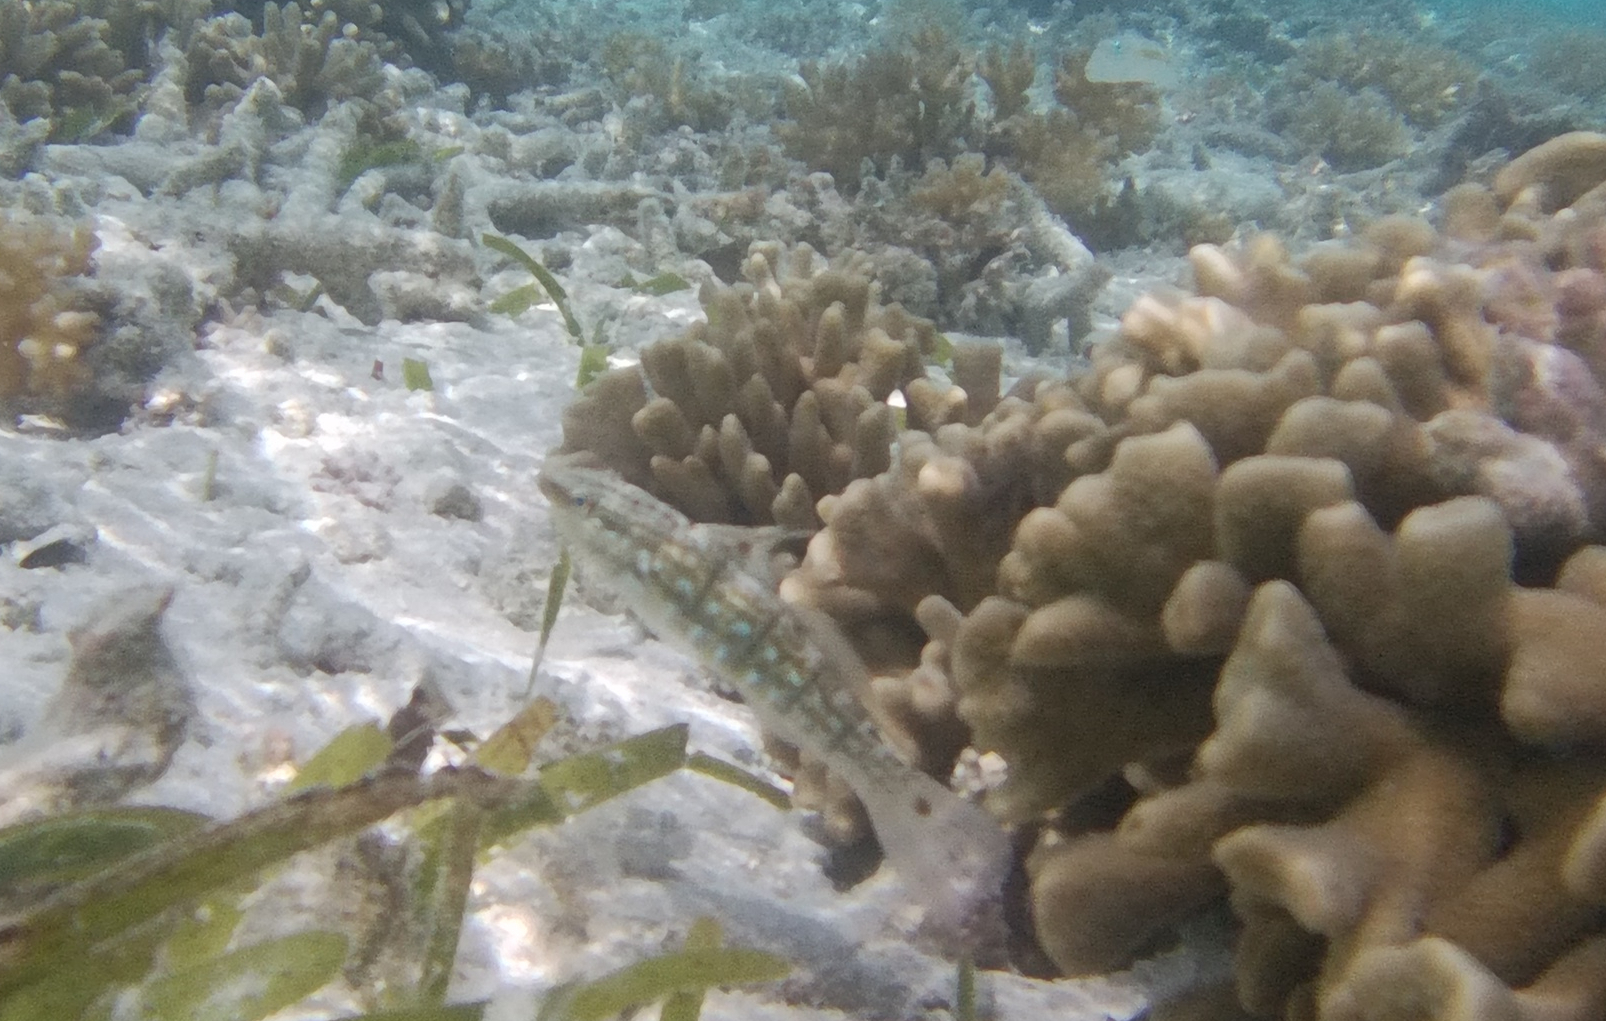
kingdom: Animalia
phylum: Chordata
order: Perciformes
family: Gobiidae
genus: Amblygobius
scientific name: Amblygobius semicinctus
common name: Halfbarred goby
